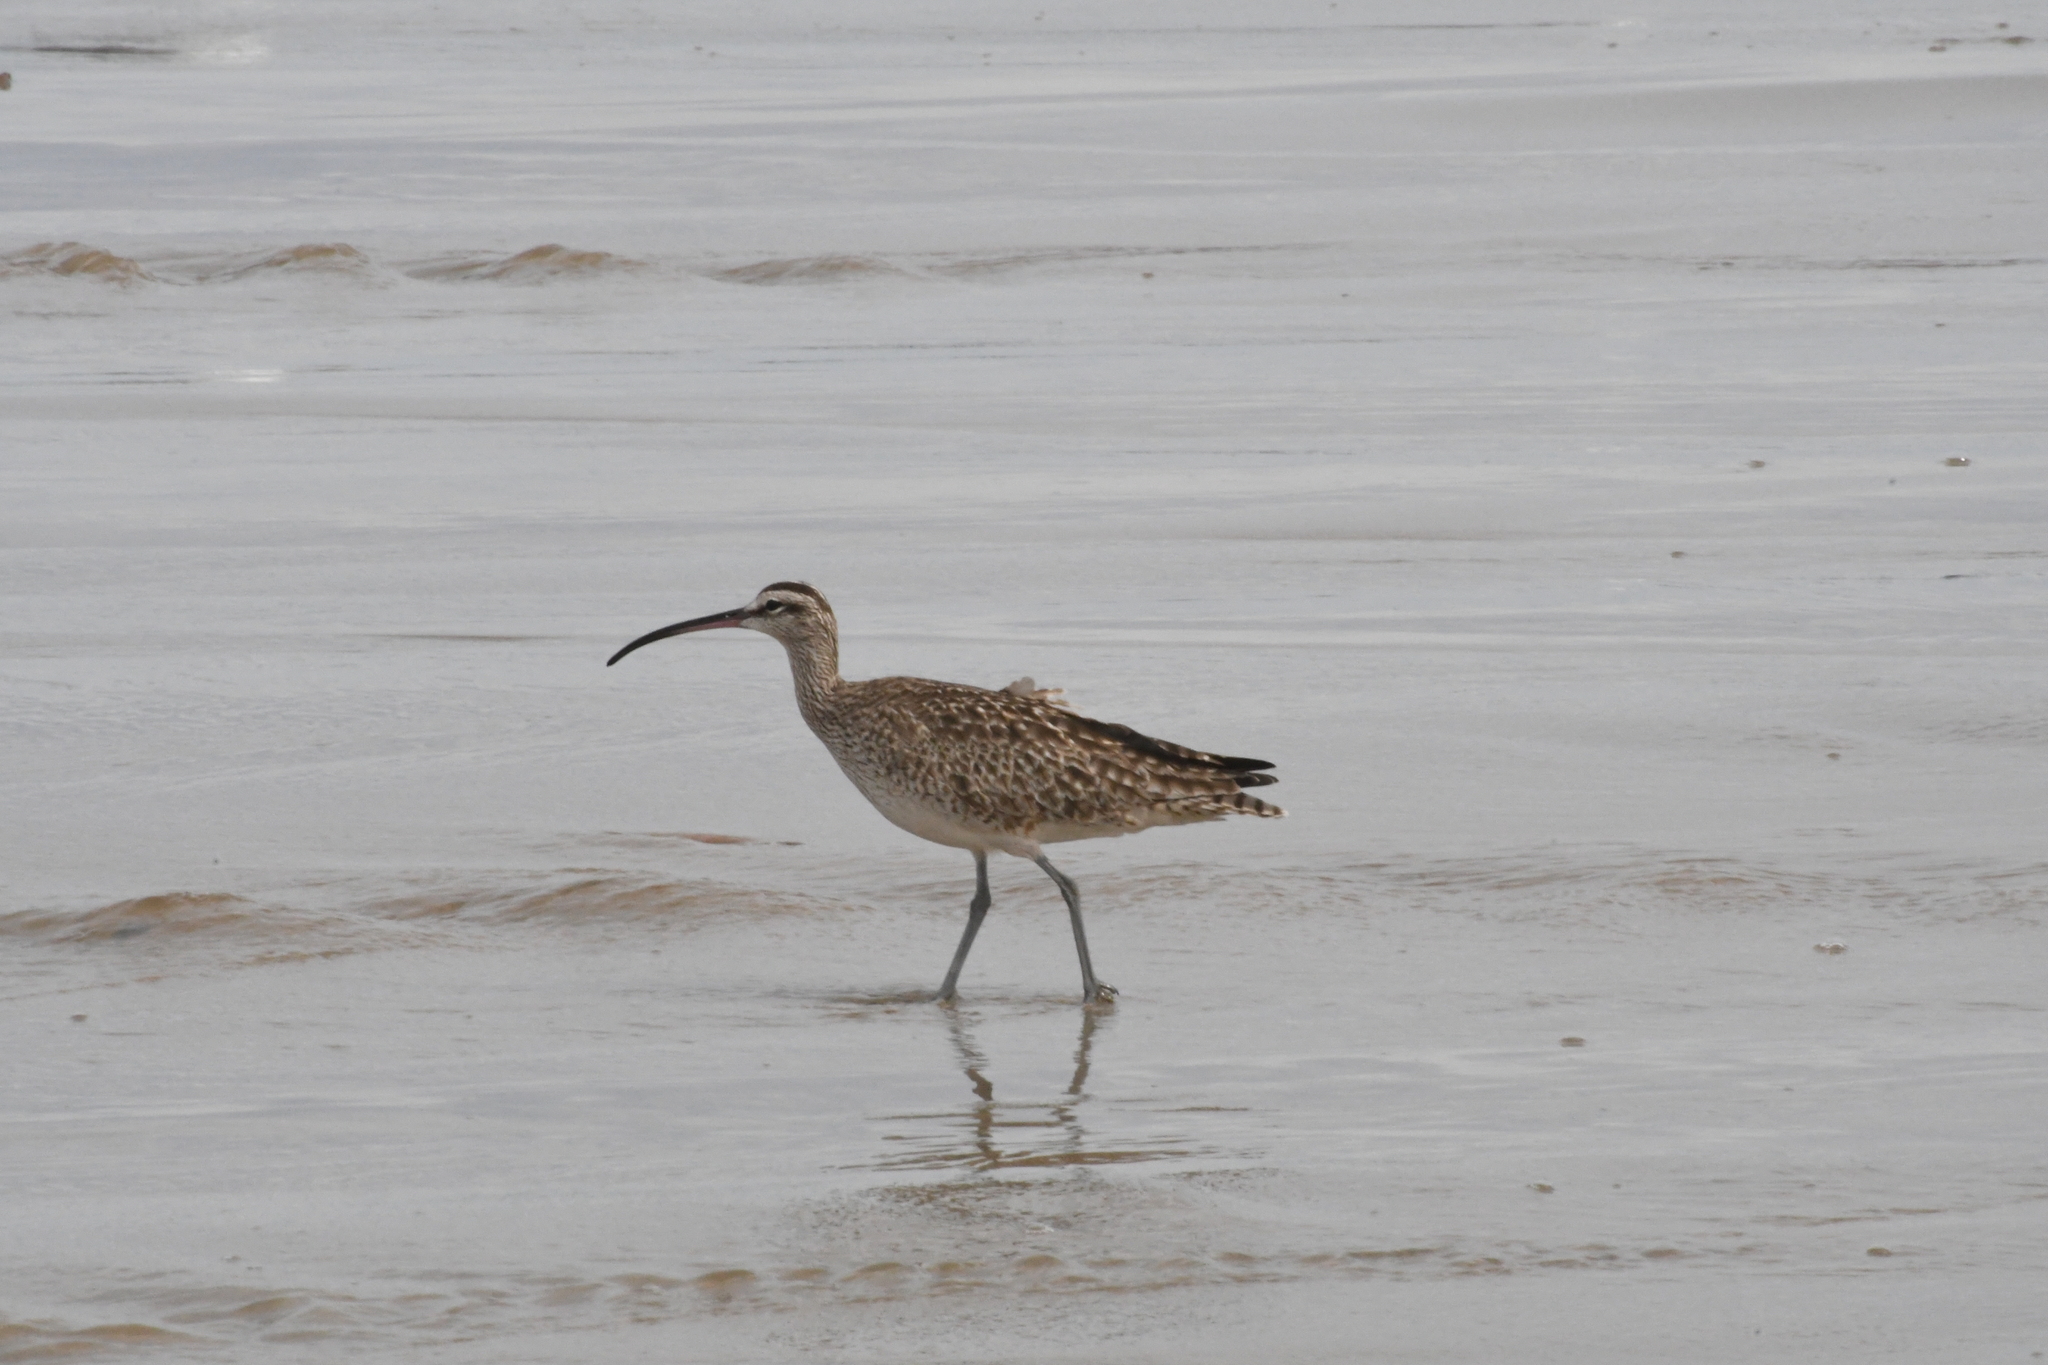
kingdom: Animalia
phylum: Chordata
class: Aves
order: Charadriiformes
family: Scolopacidae
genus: Numenius
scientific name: Numenius phaeopus
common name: Whimbrel
